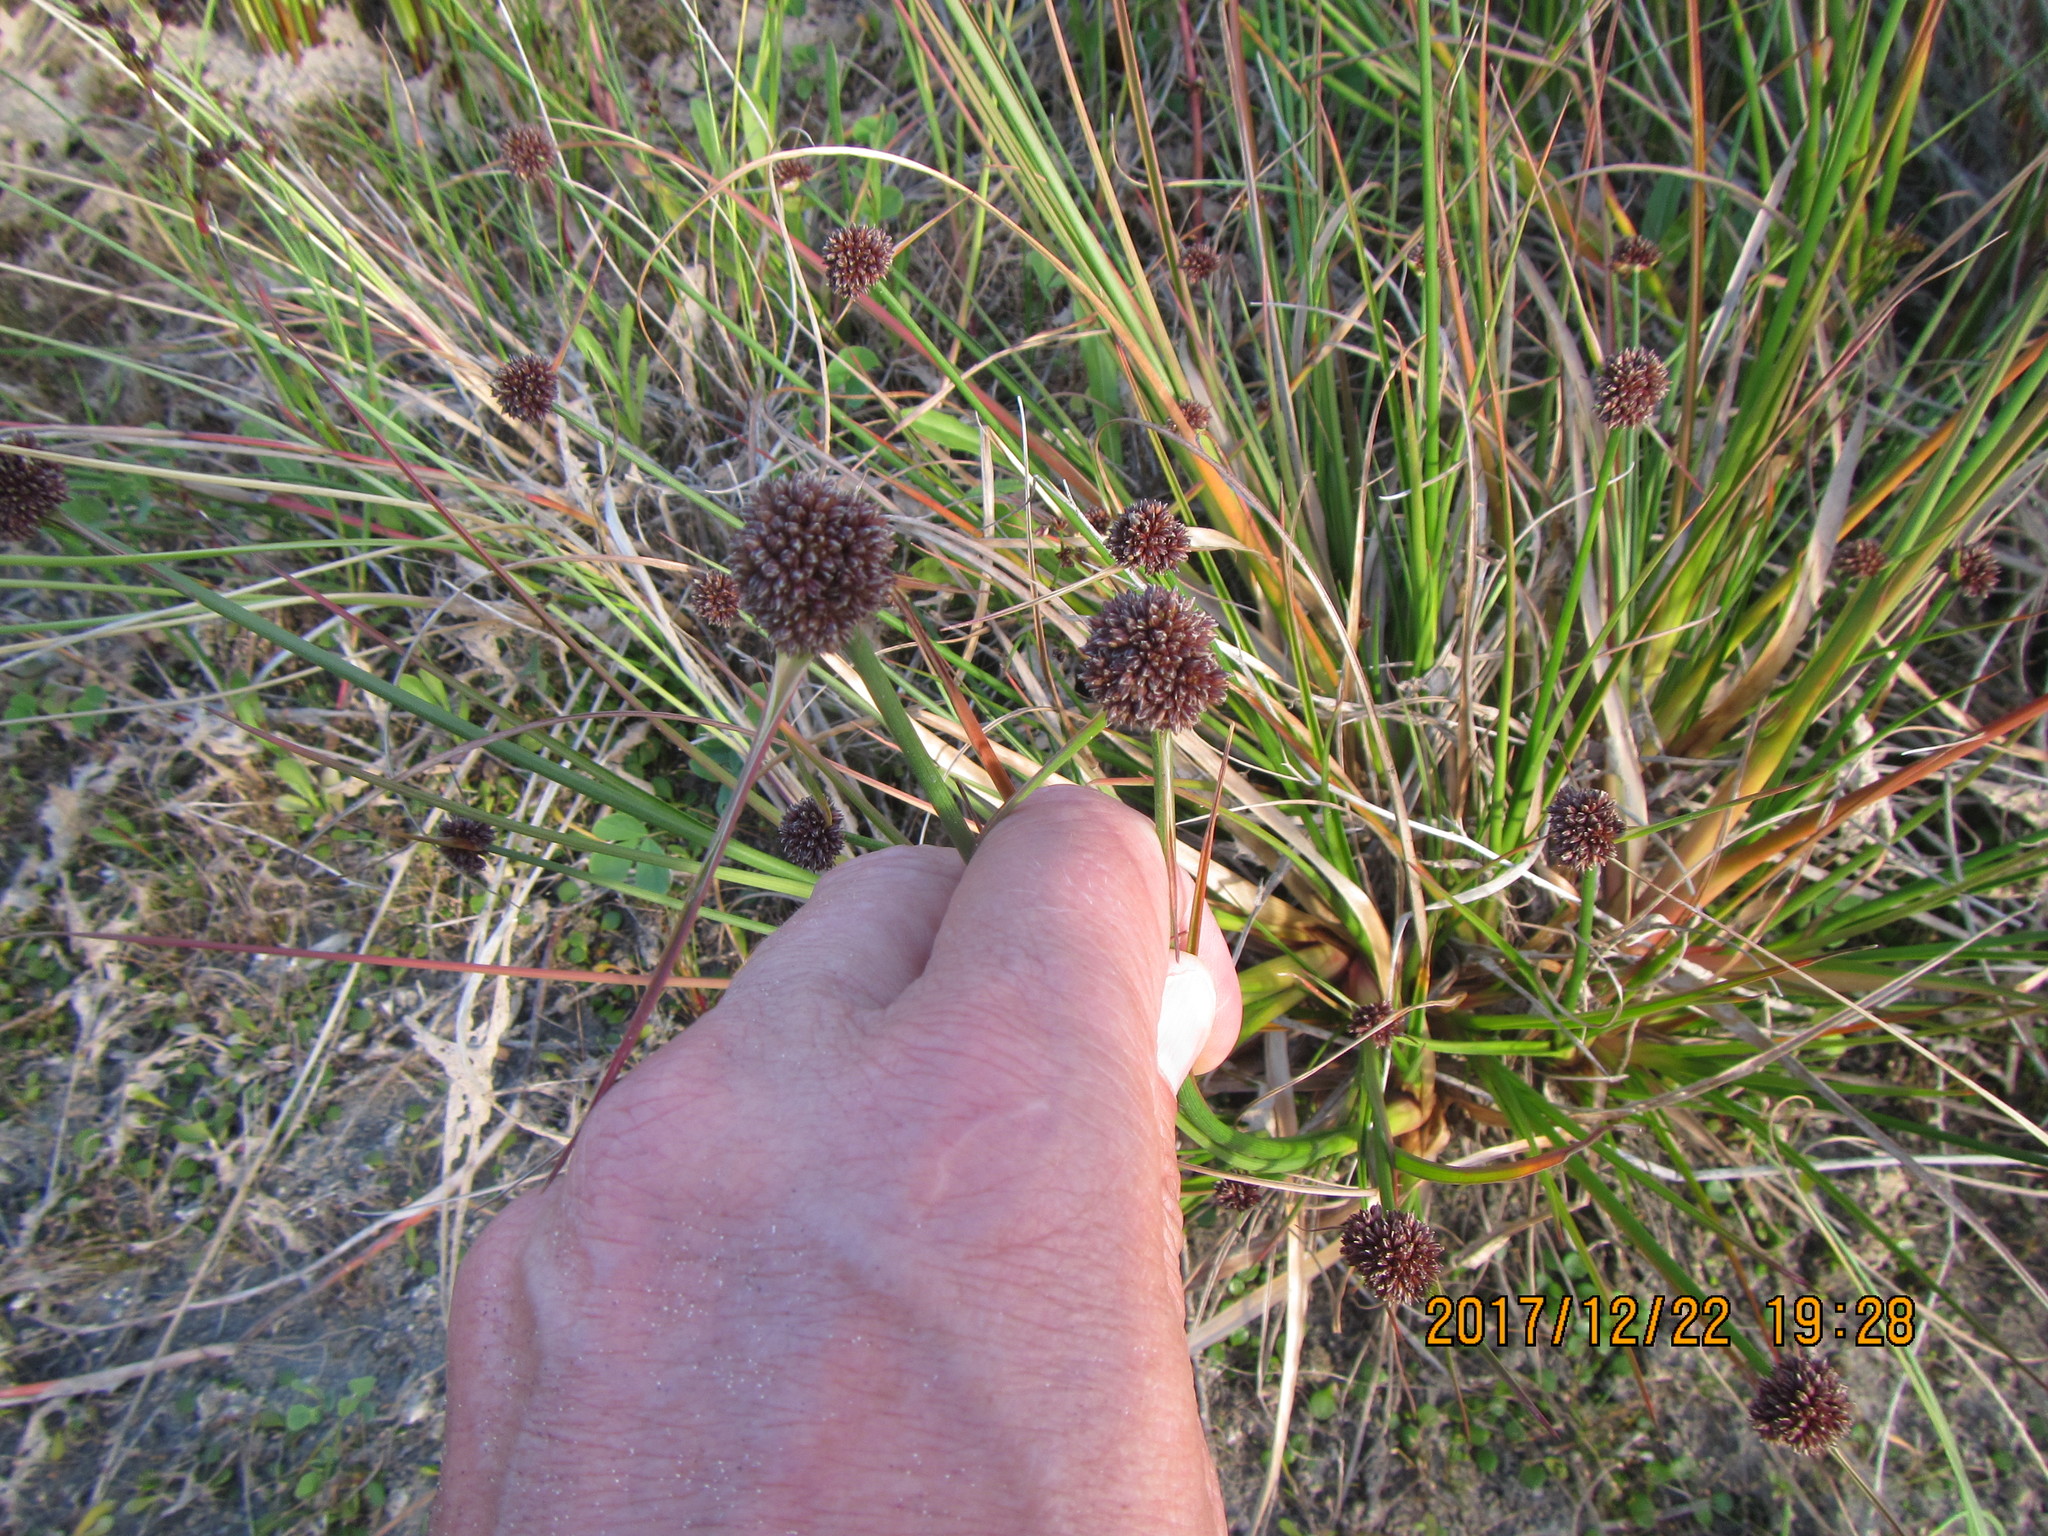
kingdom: Plantae
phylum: Tracheophyta
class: Liliopsida
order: Poales
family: Juncaceae
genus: Juncus
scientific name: Juncus caespiticius
